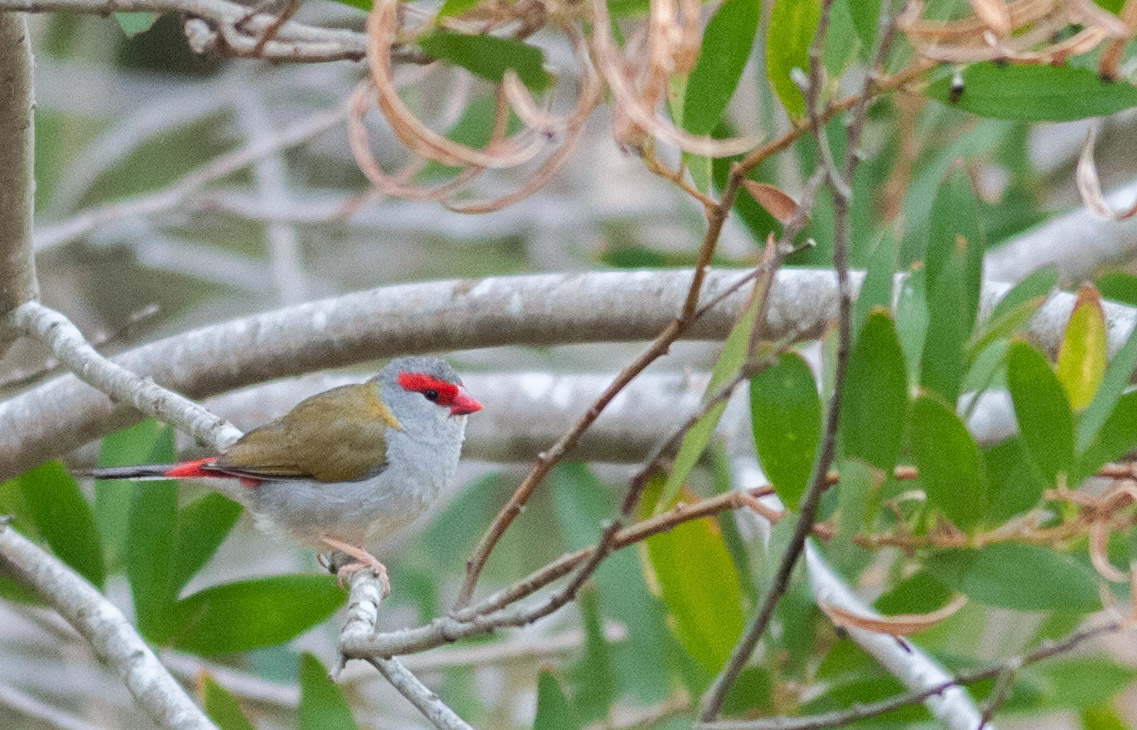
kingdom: Animalia
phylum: Chordata
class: Aves
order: Passeriformes
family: Estrildidae
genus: Neochmia
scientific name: Neochmia temporalis
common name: Red-browed finch
